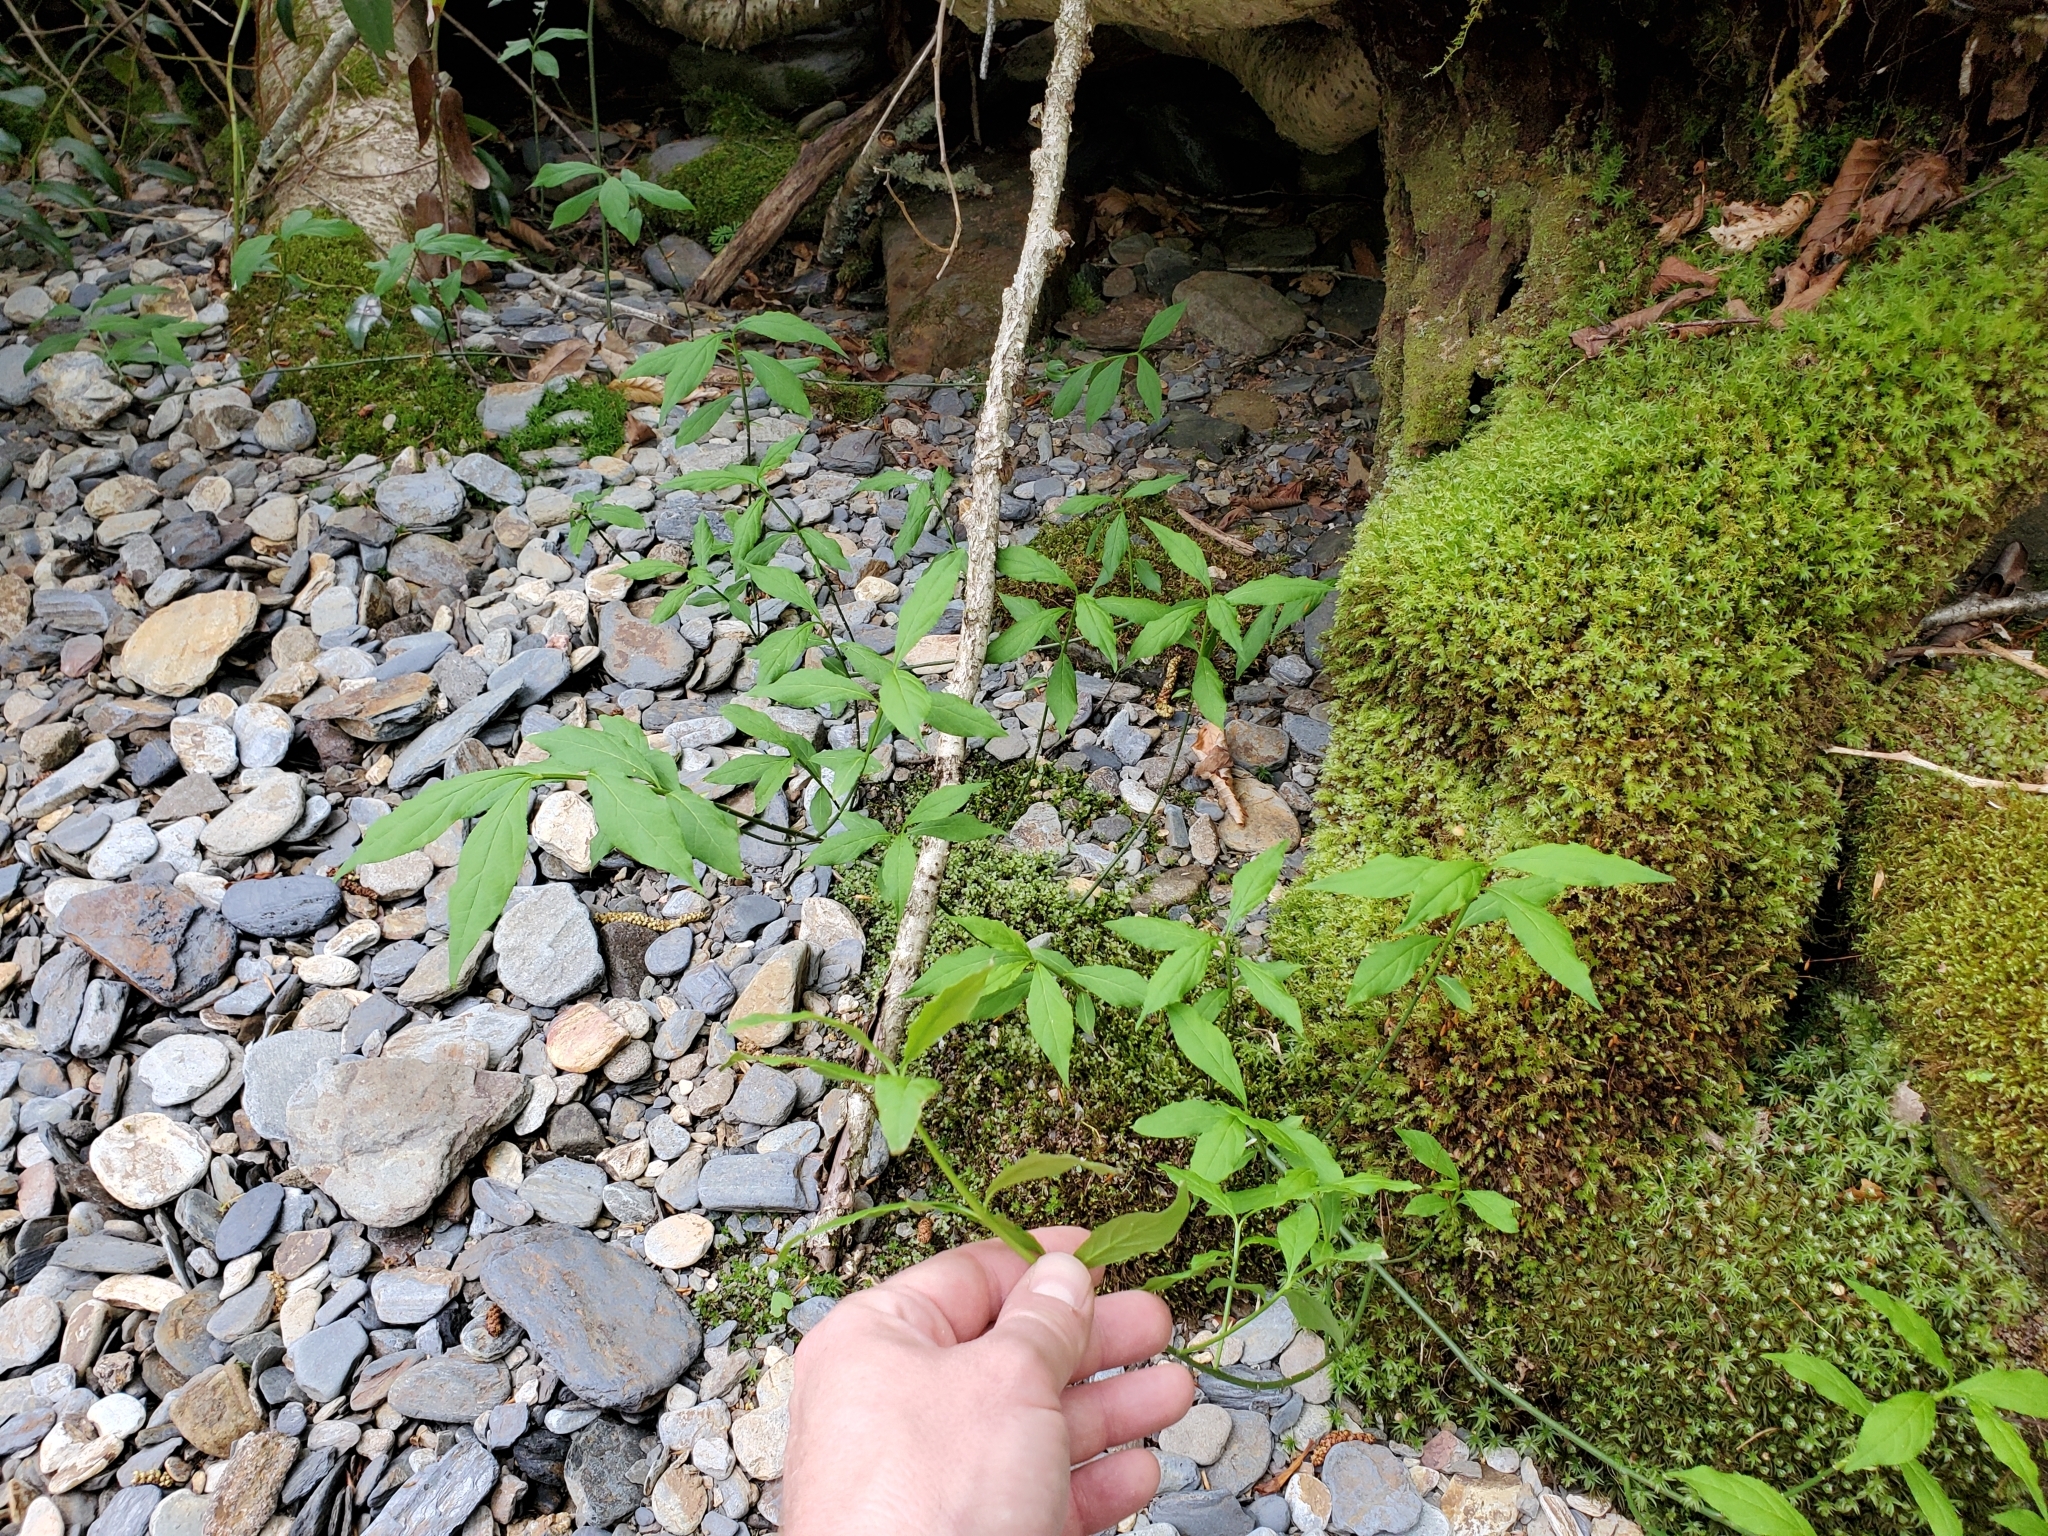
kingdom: Plantae
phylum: Tracheophyta
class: Magnoliopsida
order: Celastrales
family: Celastraceae
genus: Euonymus
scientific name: Euonymus obovatus
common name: Running strawberry-bush
